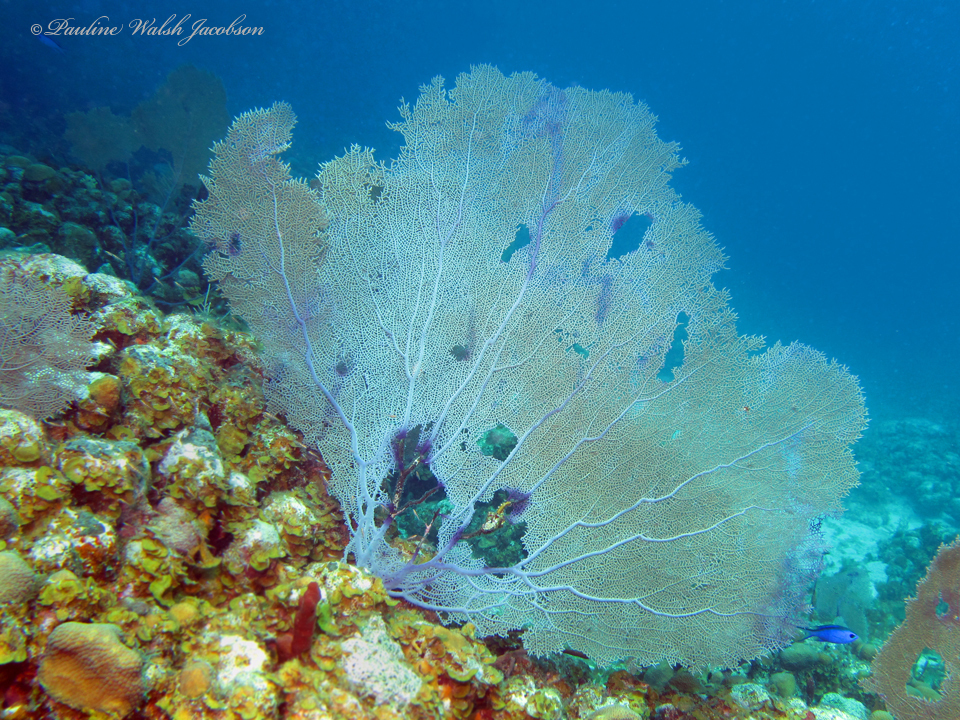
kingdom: Animalia
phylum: Cnidaria
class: Anthozoa
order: Malacalcyonacea
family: Gorgoniidae
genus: Gorgonia
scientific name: Gorgonia ventalina
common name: Common sea fan
